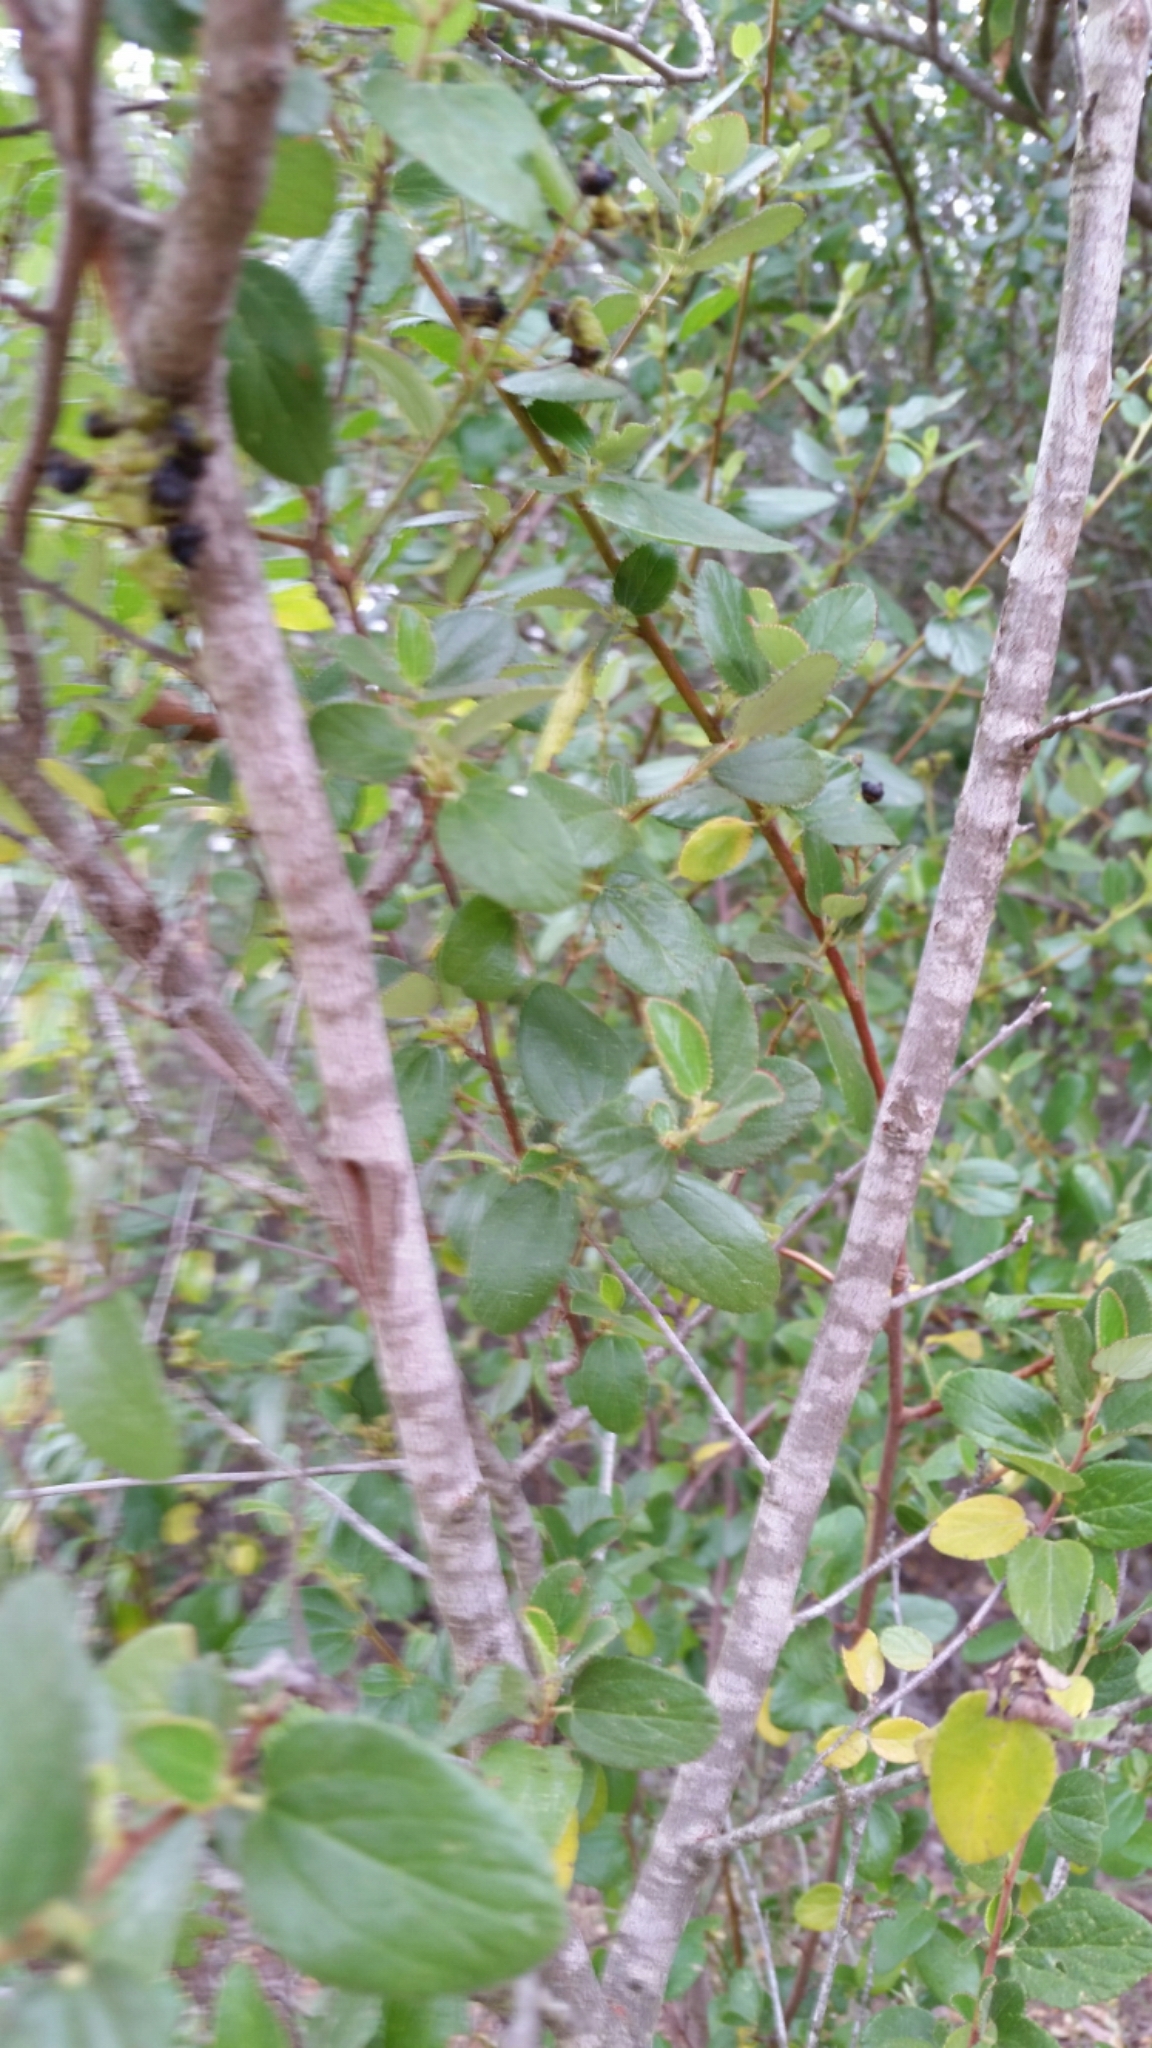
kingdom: Plantae
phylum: Tracheophyta
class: Magnoliopsida
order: Rosales
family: Rhamnaceae
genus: Ceanothus
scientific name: Ceanothus tomentosus
